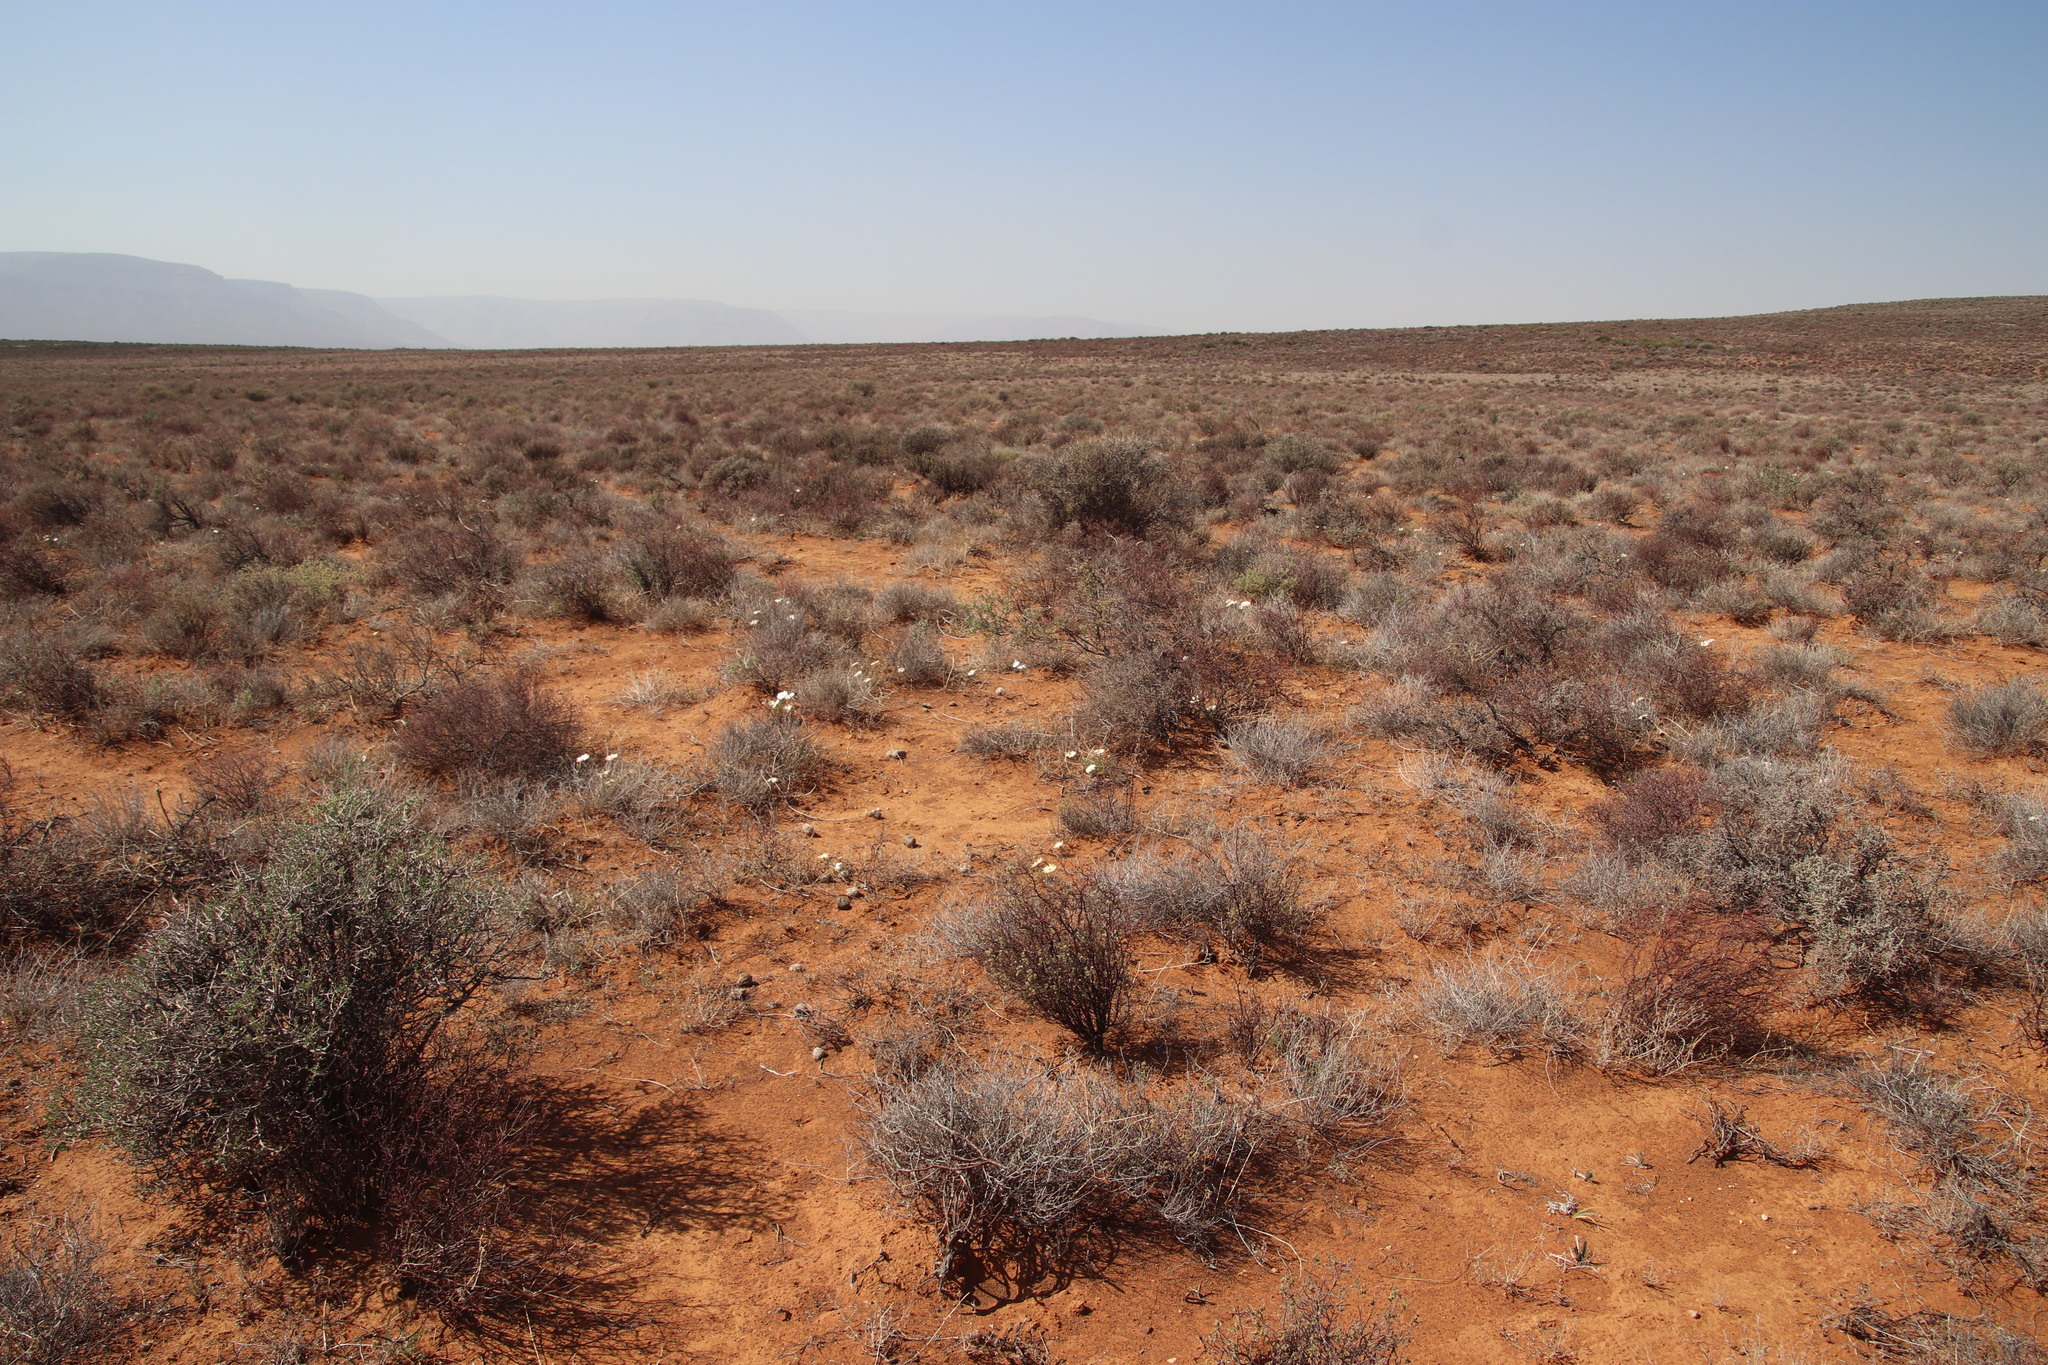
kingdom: Plantae
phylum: Tracheophyta
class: Magnoliopsida
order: Asterales
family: Asteraceae
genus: Dimorphotheca
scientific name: Dimorphotheca pinnata
